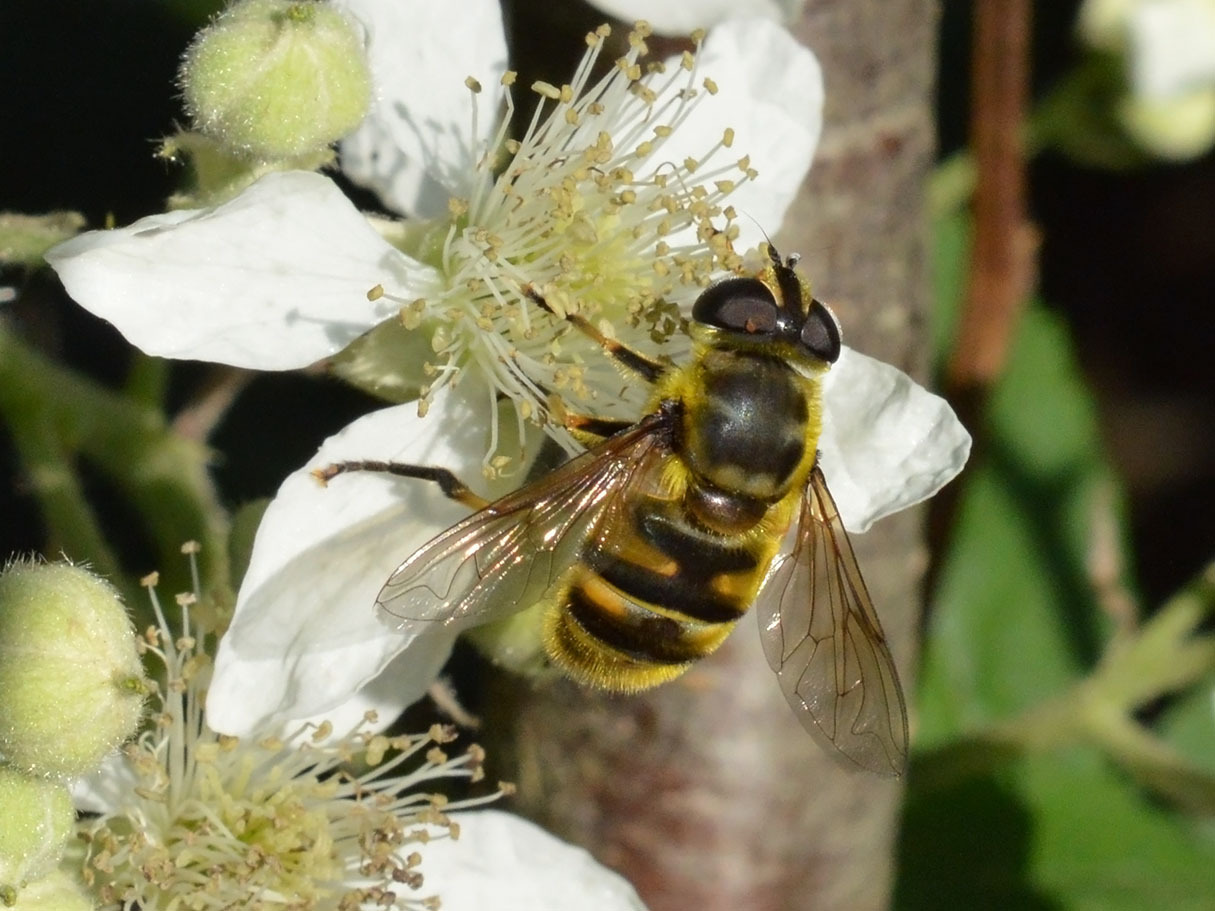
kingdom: Animalia
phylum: Arthropoda
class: Insecta
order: Diptera
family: Syrphidae
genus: Myathropa
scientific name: Myathropa florea
